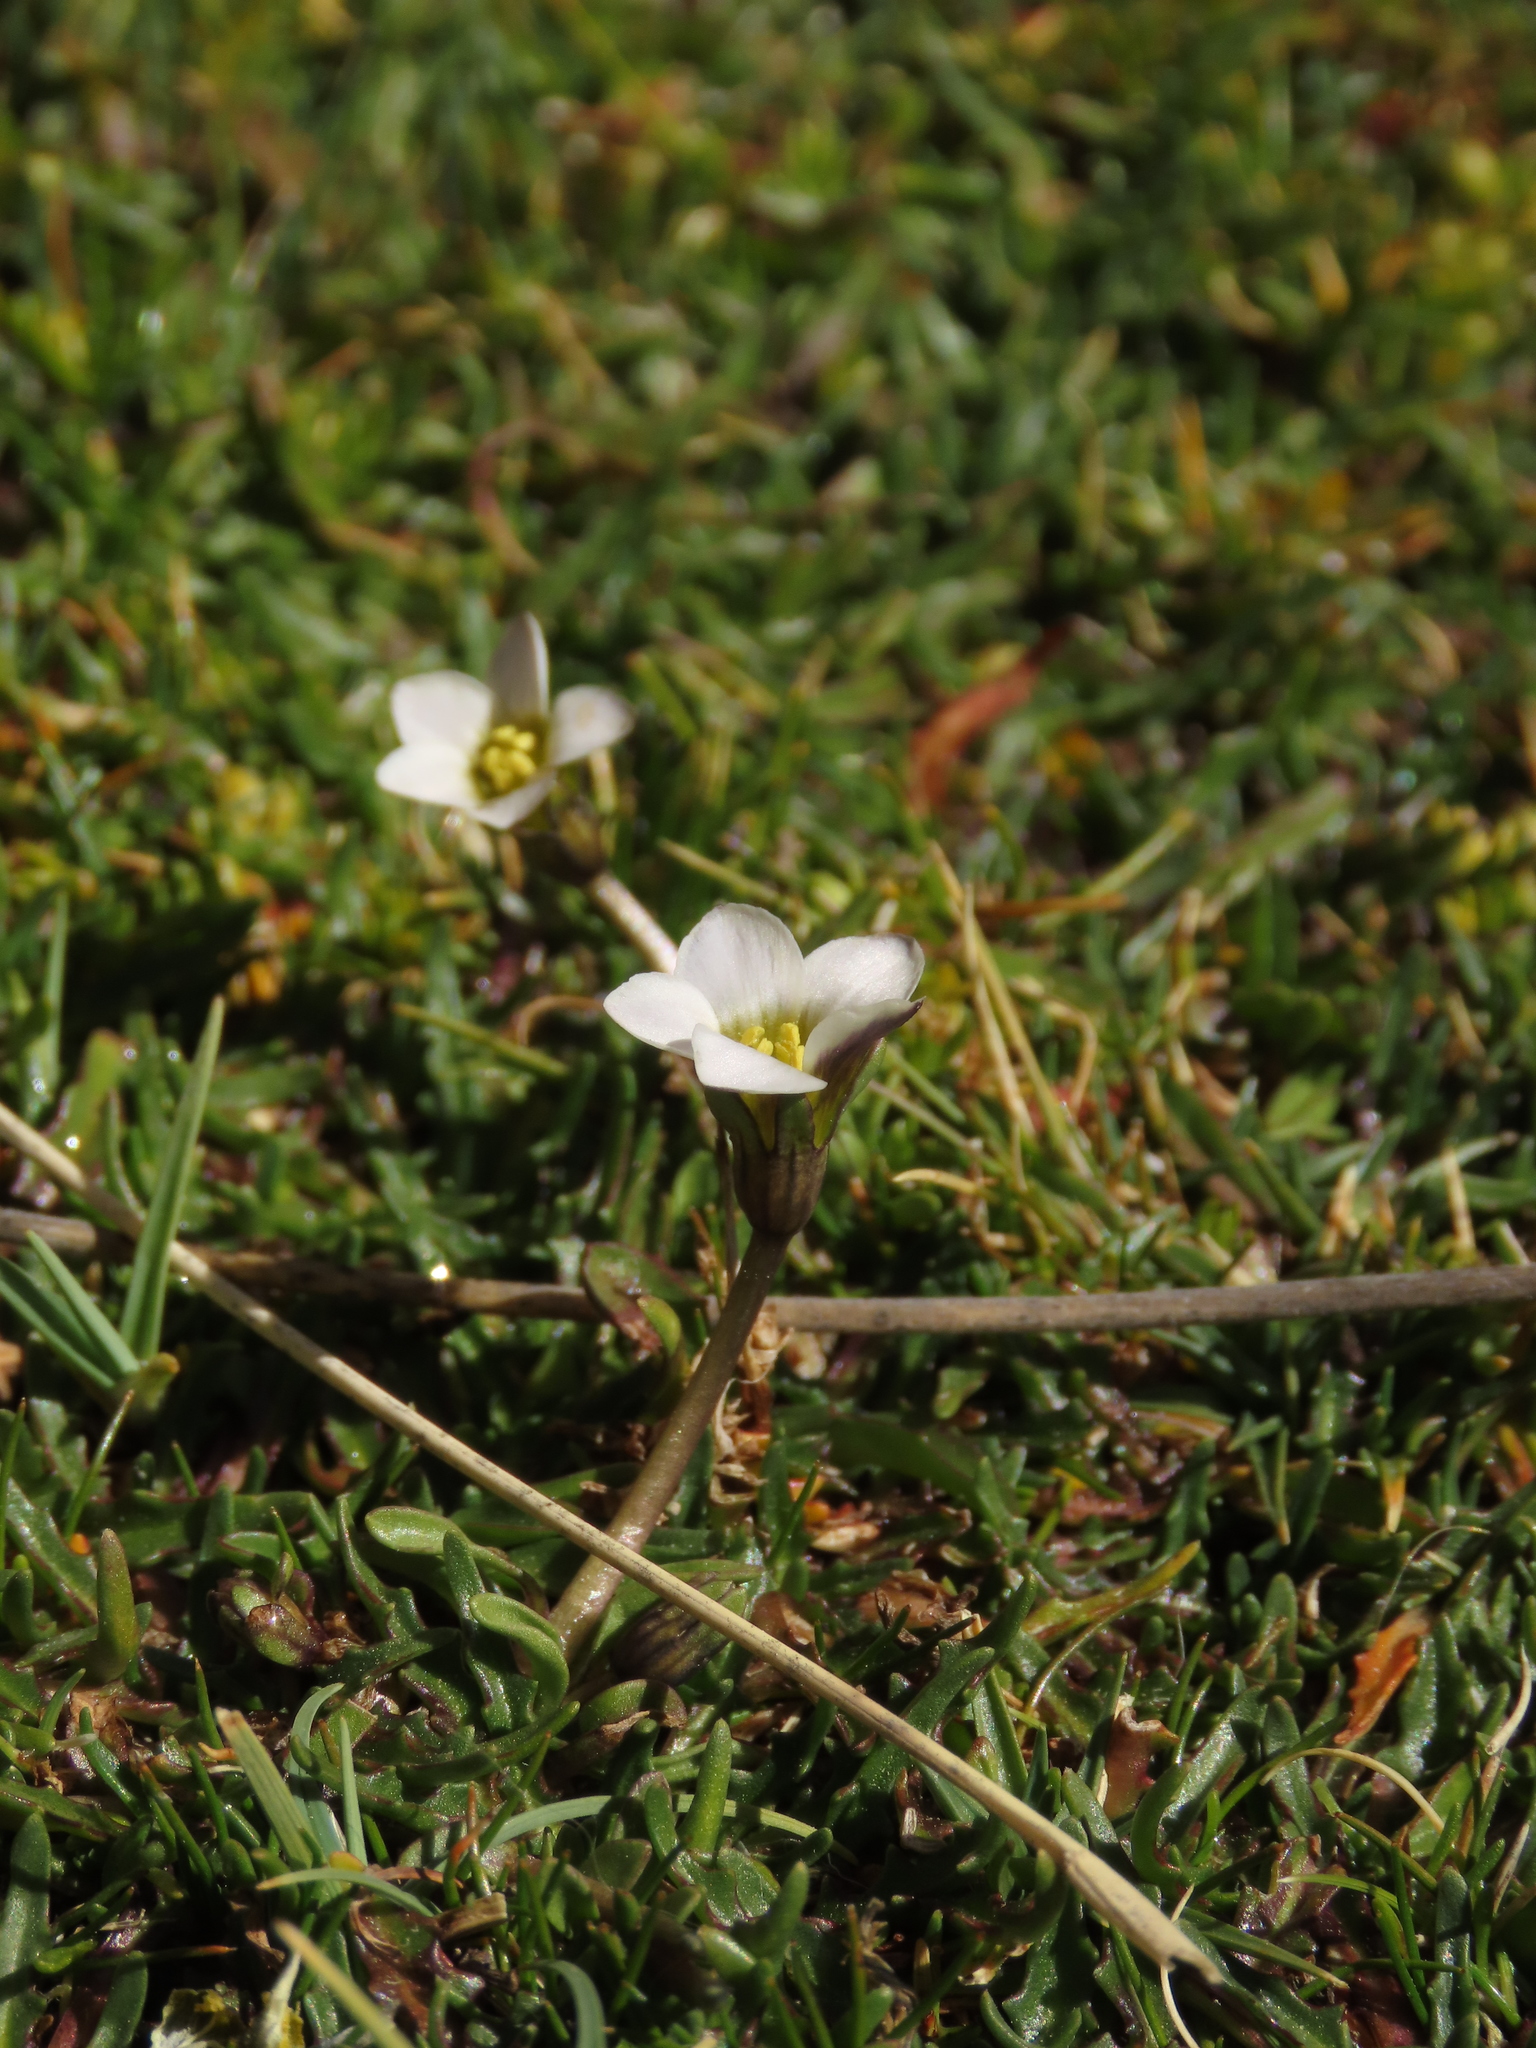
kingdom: Plantae
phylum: Tracheophyta
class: Magnoliopsida
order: Gentianales
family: Gentianaceae
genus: Gentianella
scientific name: Gentianella tarapacana
